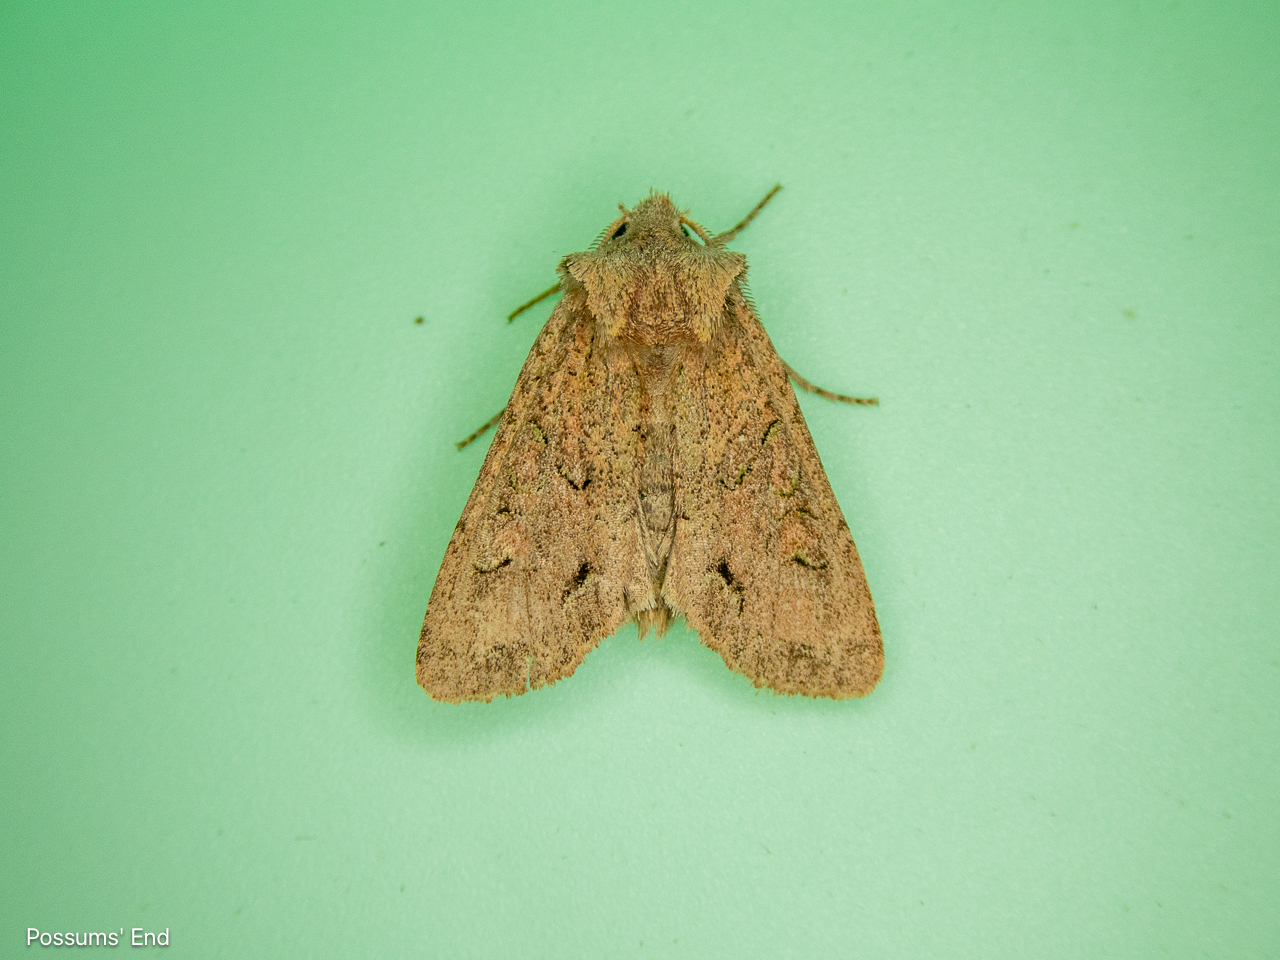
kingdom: Animalia
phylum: Arthropoda
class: Insecta
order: Lepidoptera
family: Noctuidae
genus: Ichneutica
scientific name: Ichneutica skelloni
